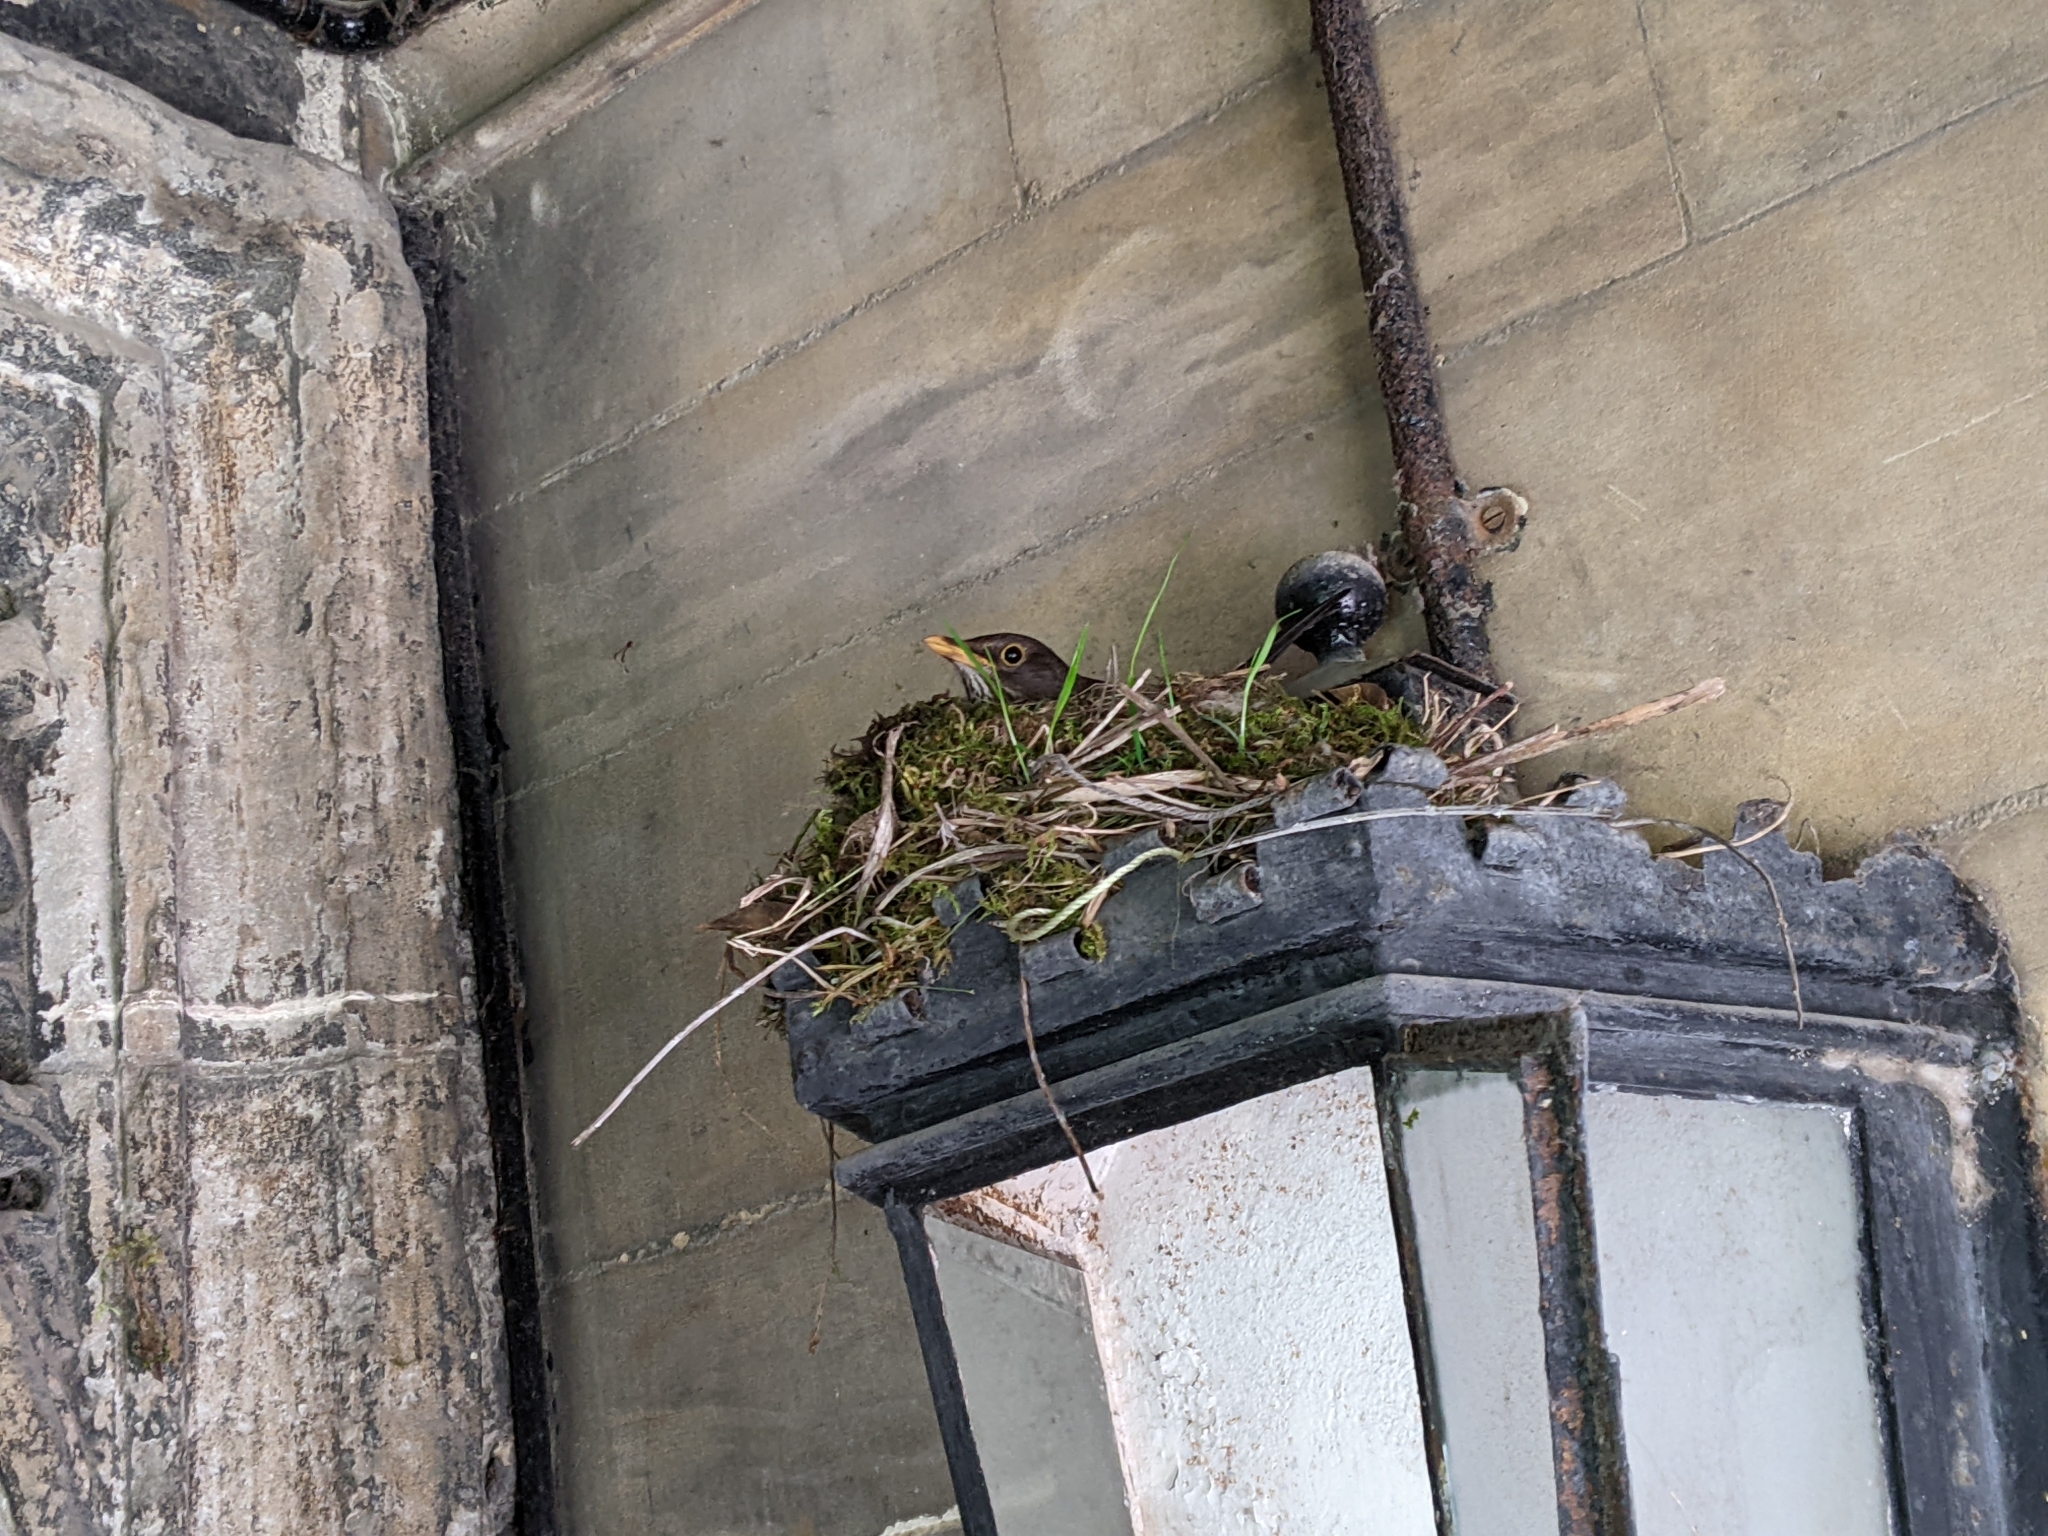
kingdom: Animalia
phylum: Chordata
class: Aves
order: Passeriformes
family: Turdidae
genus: Turdus
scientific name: Turdus merula
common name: Common blackbird
